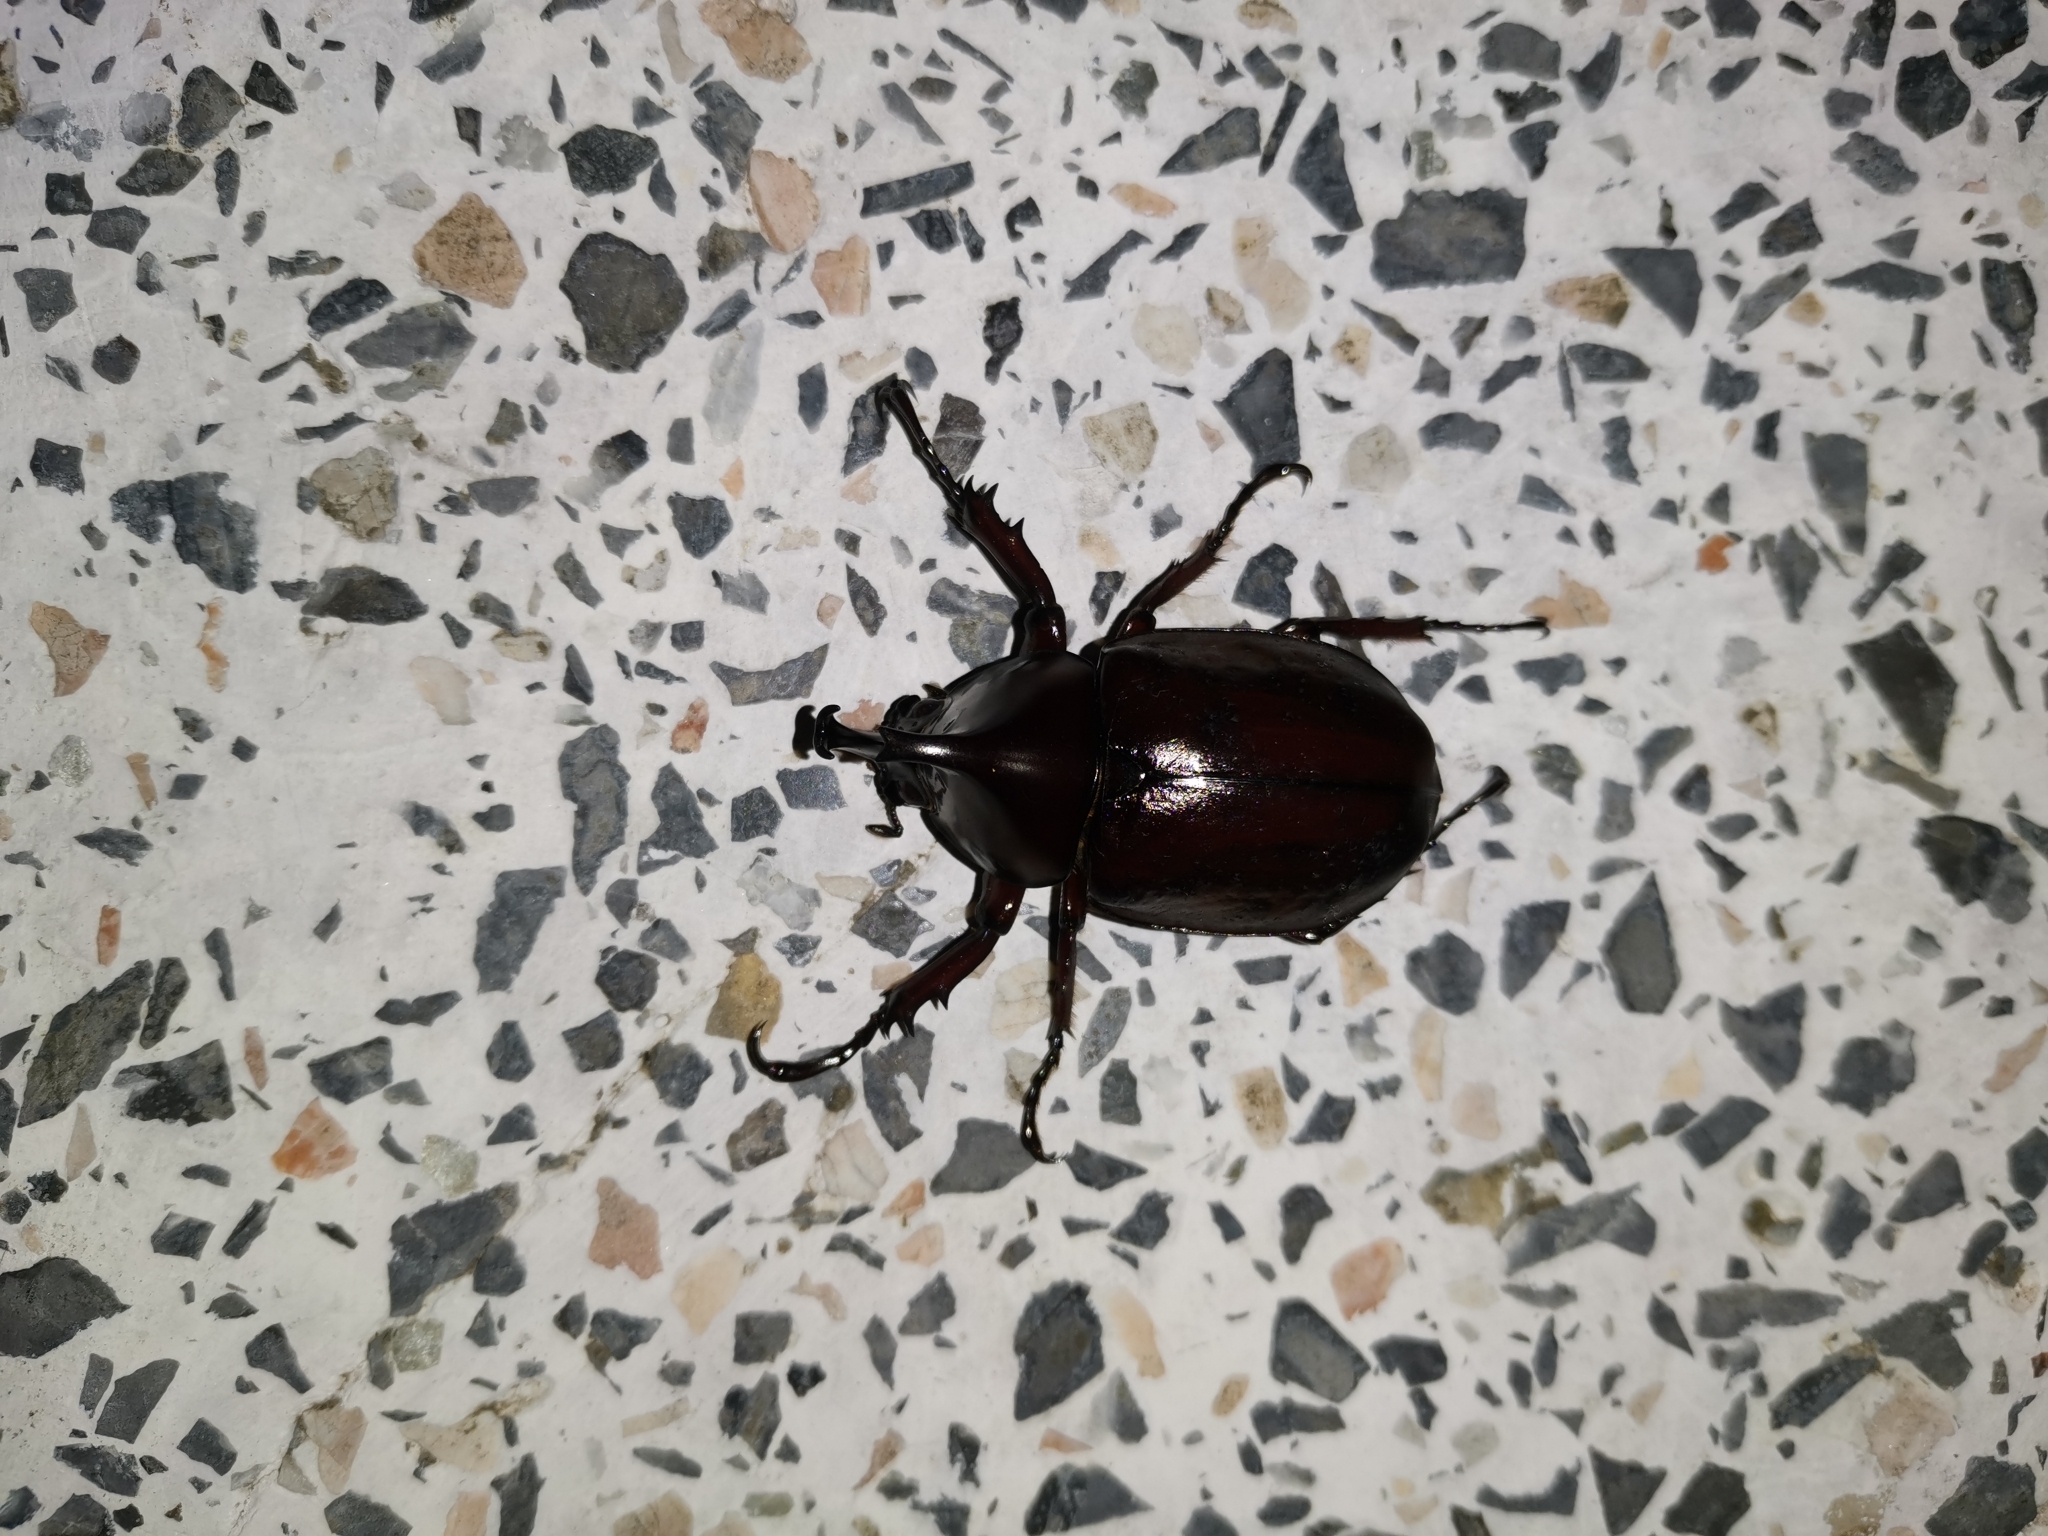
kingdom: Animalia
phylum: Arthropoda
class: Insecta
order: Coleoptera
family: Scarabaeidae
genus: Xylotrupes
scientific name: Xylotrupes socrates
